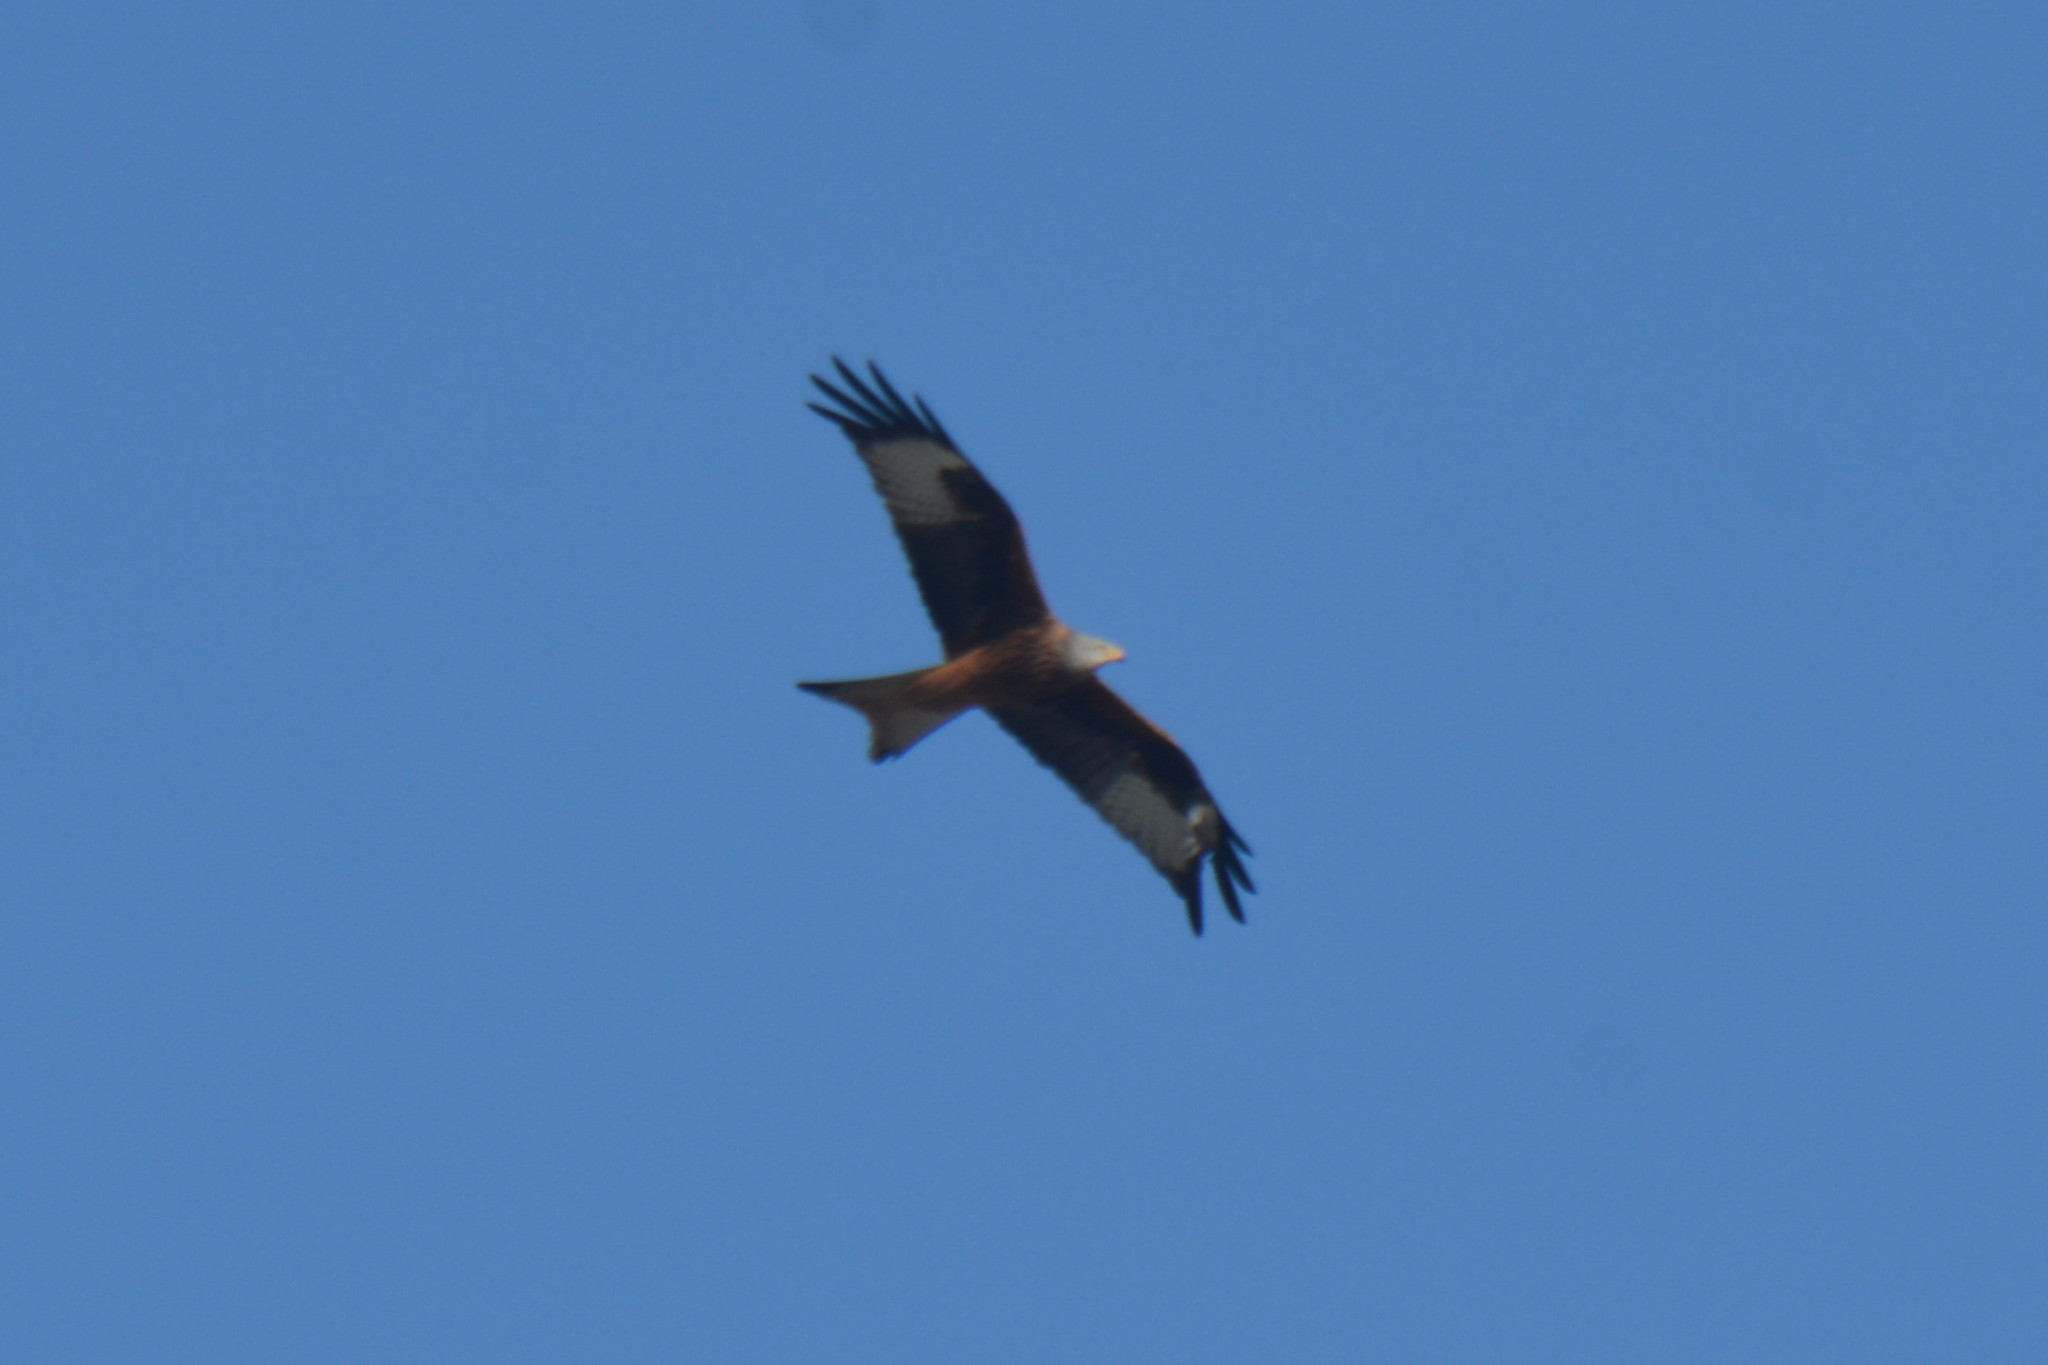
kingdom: Animalia
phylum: Chordata
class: Aves
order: Accipitriformes
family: Accipitridae
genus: Milvus
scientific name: Milvus milvus
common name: Red kite
